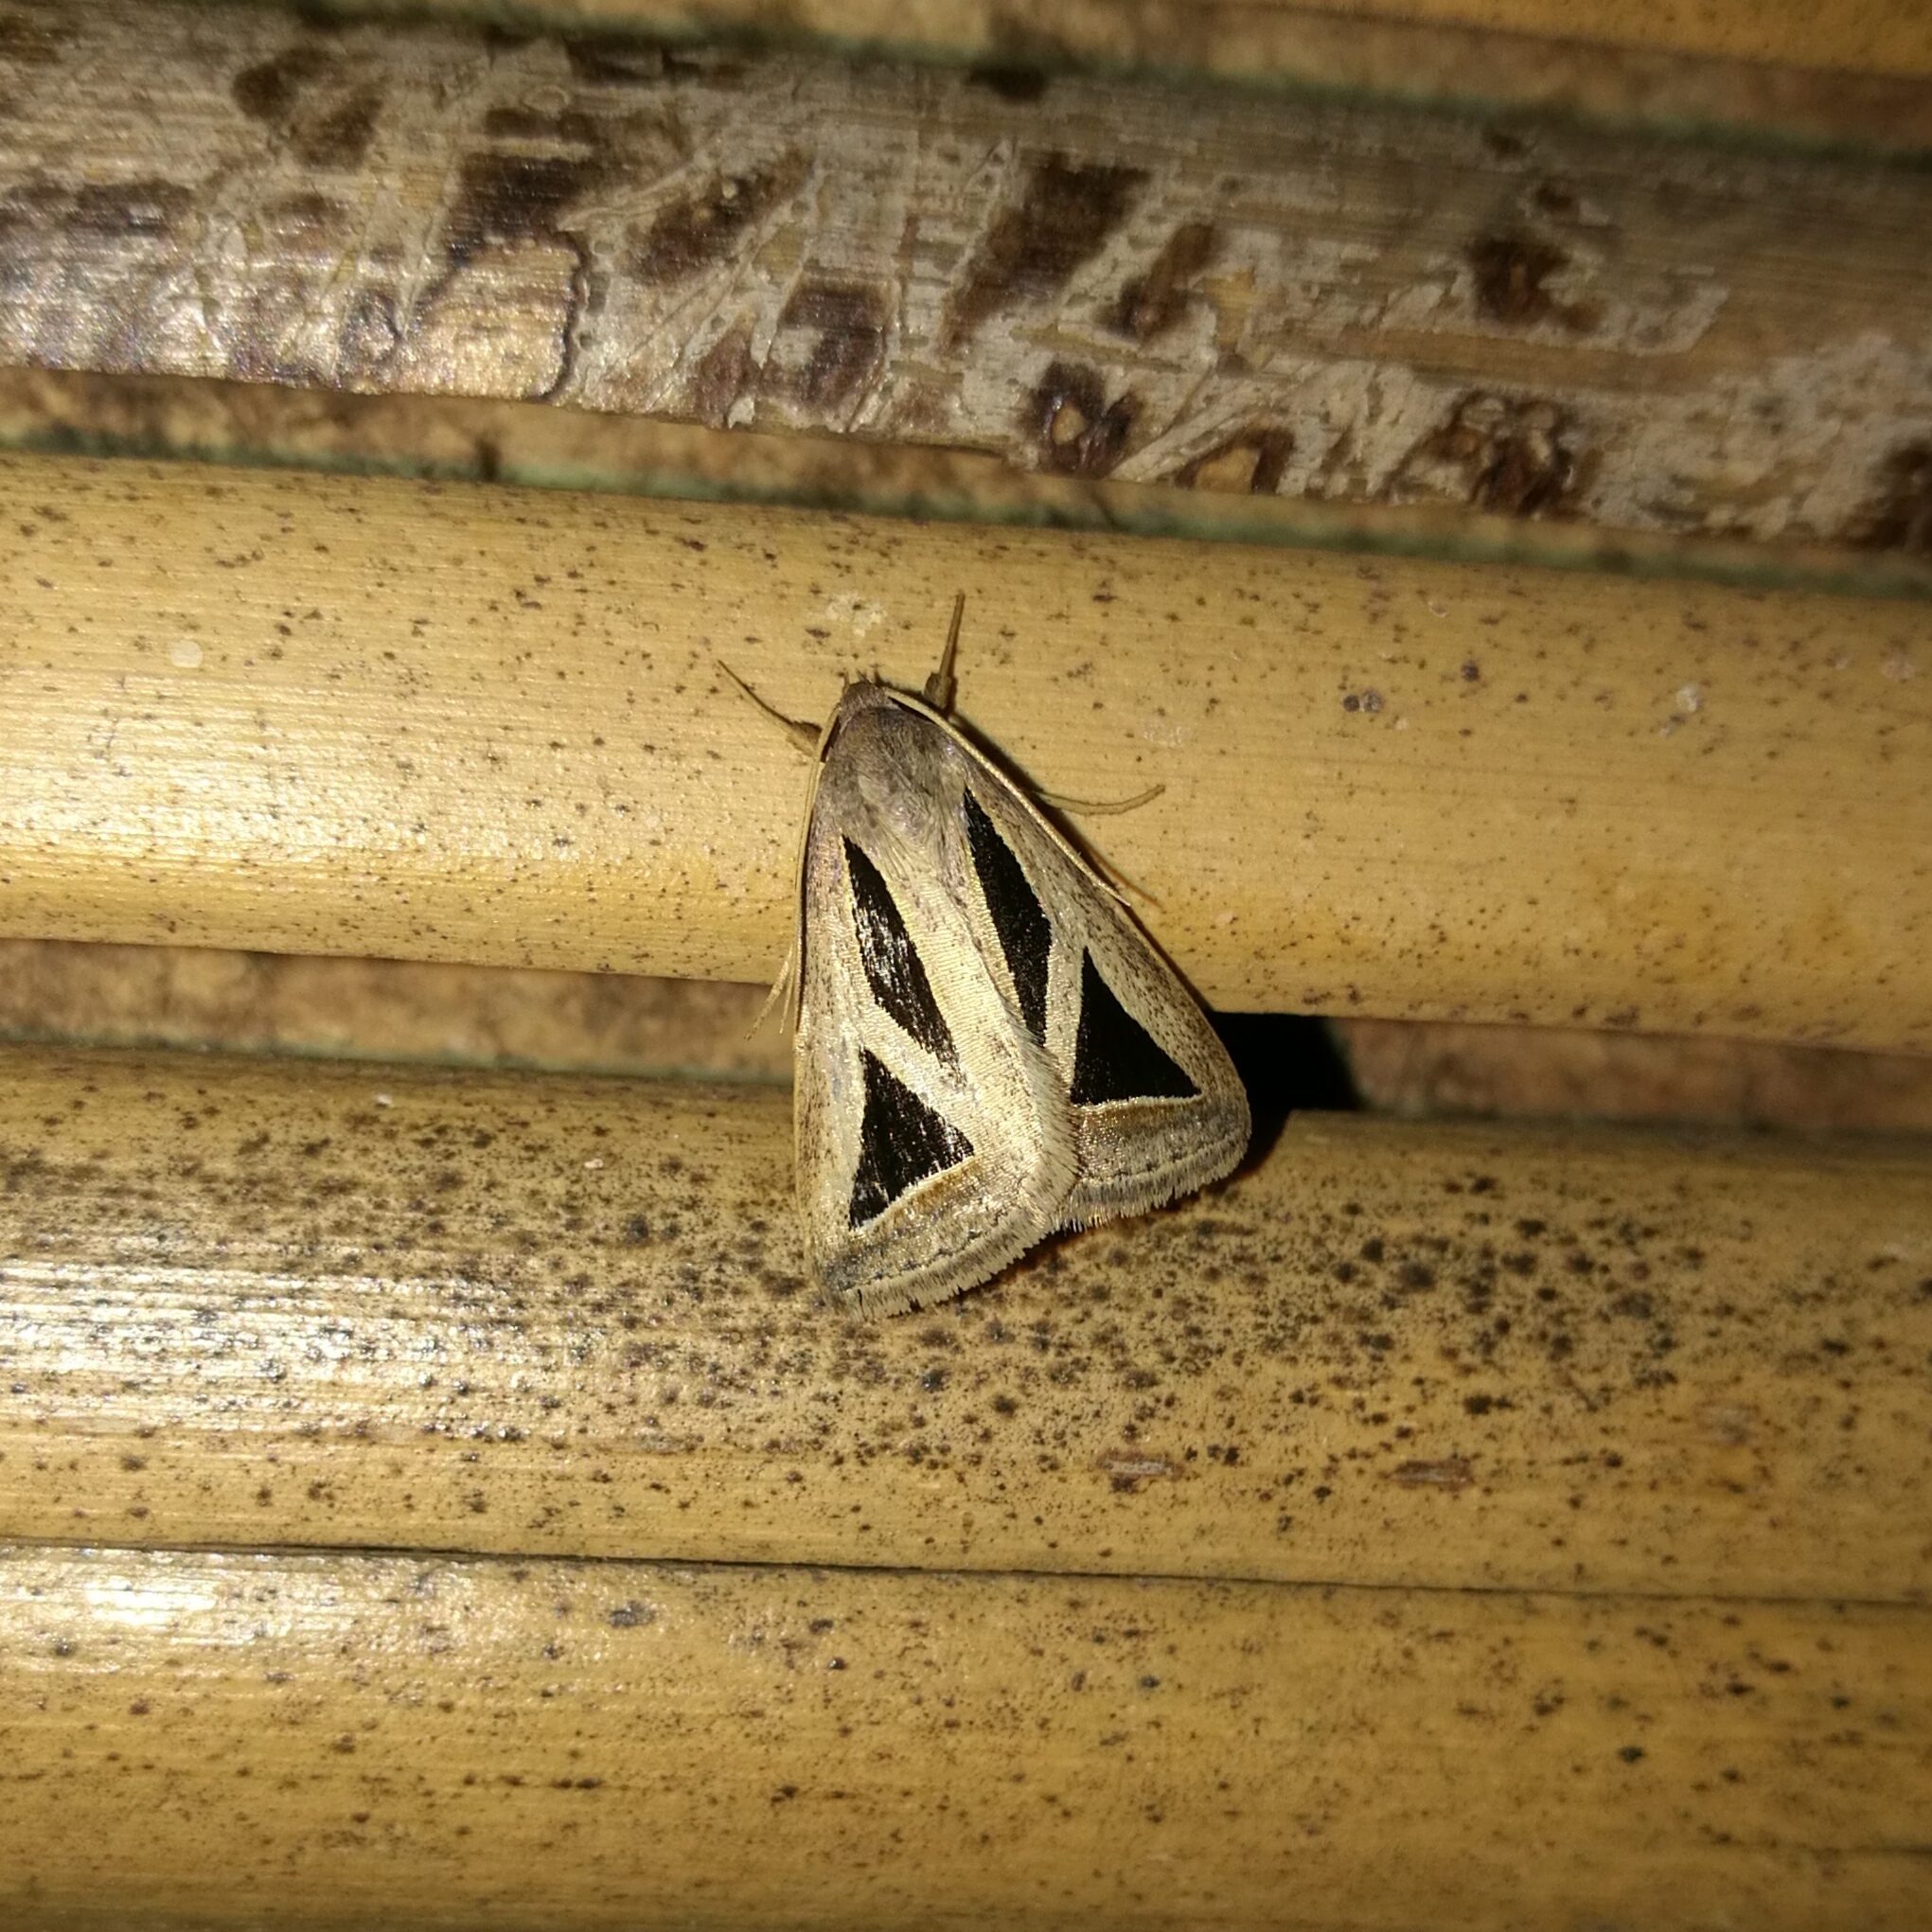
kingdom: Animalia
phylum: Arthropoda
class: Insecta
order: Lepidoptera
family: Erebidae
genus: Trigonodes
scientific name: Trigonodes pusilla
